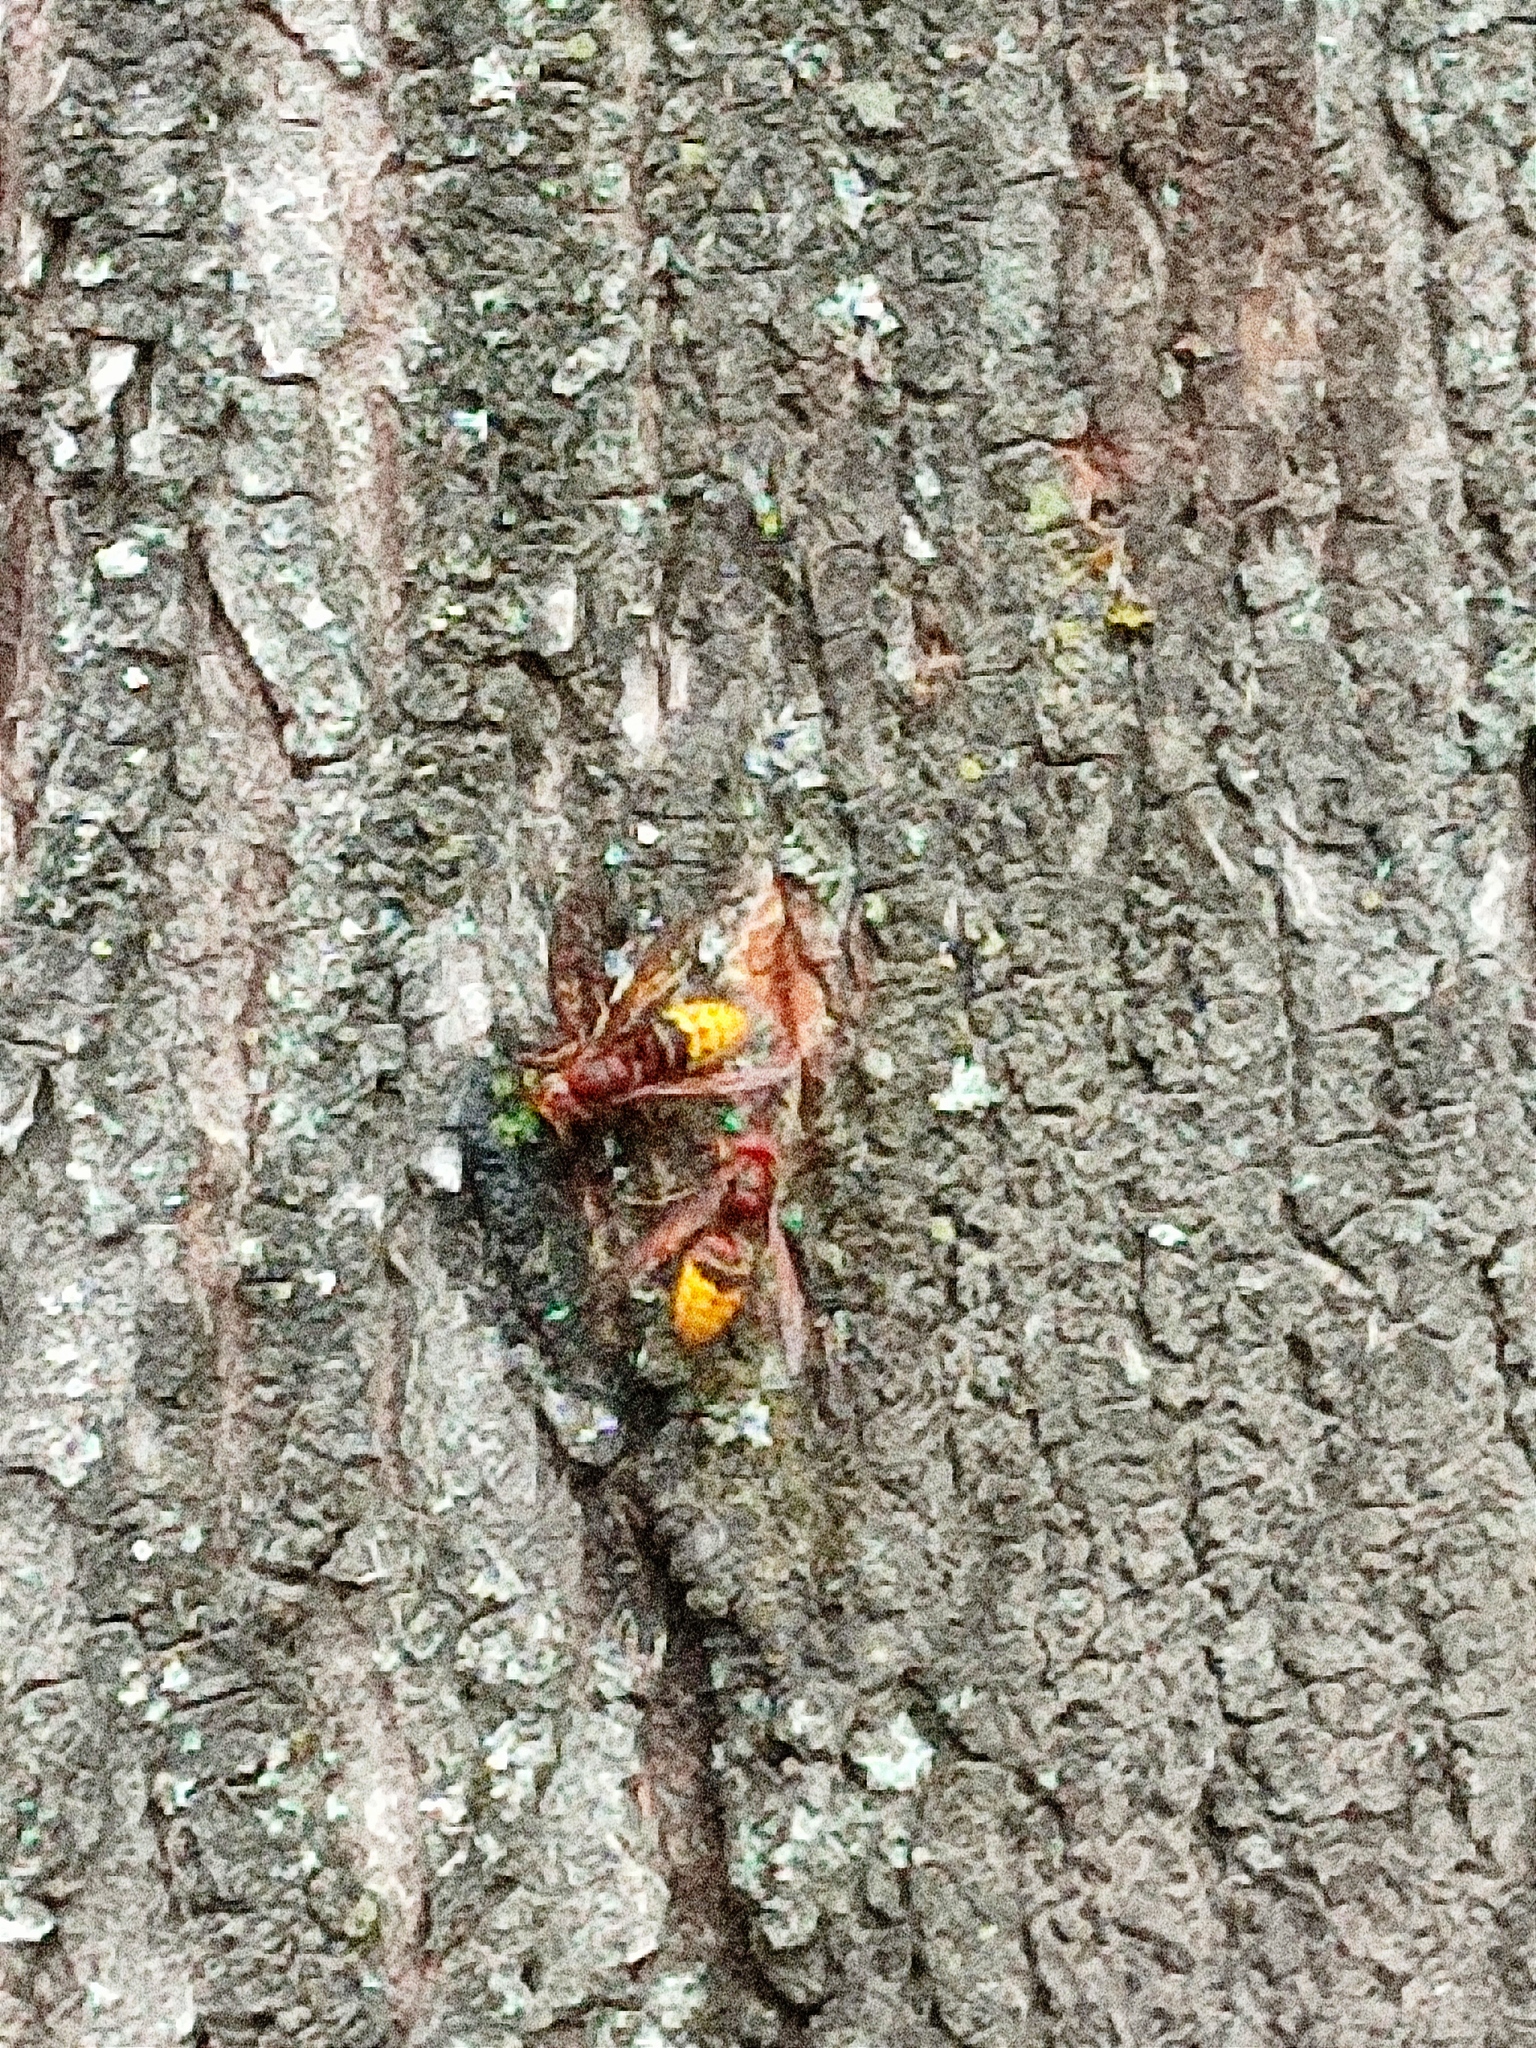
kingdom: Animalia
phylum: Arthropoda
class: Insecta
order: Hymenoptera
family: Vespidae
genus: Vespa
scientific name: Vespa crabro
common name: Hornet
